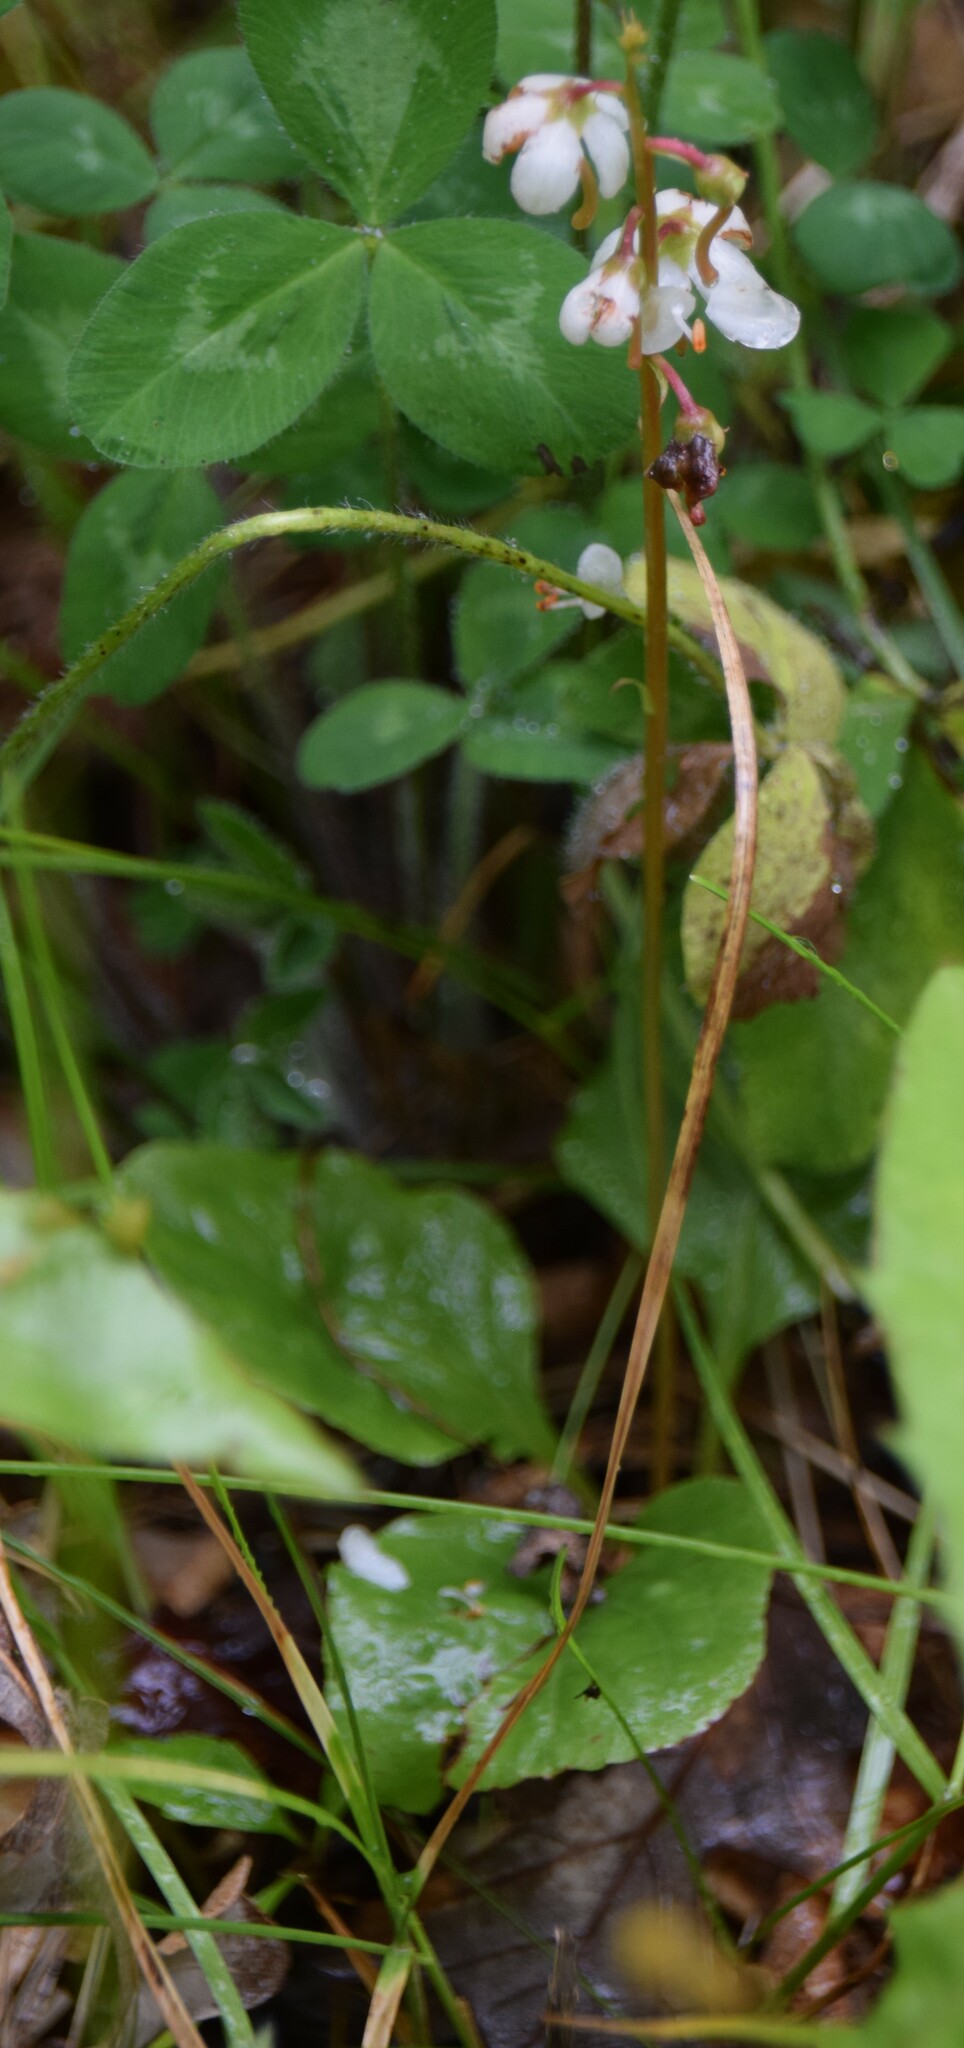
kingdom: Plantae
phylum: Tracheophyta
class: Magnoliopsida
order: Ericales
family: Ericaceae
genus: Pyrola
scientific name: Pyrola elliptica
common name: Shinleaf
